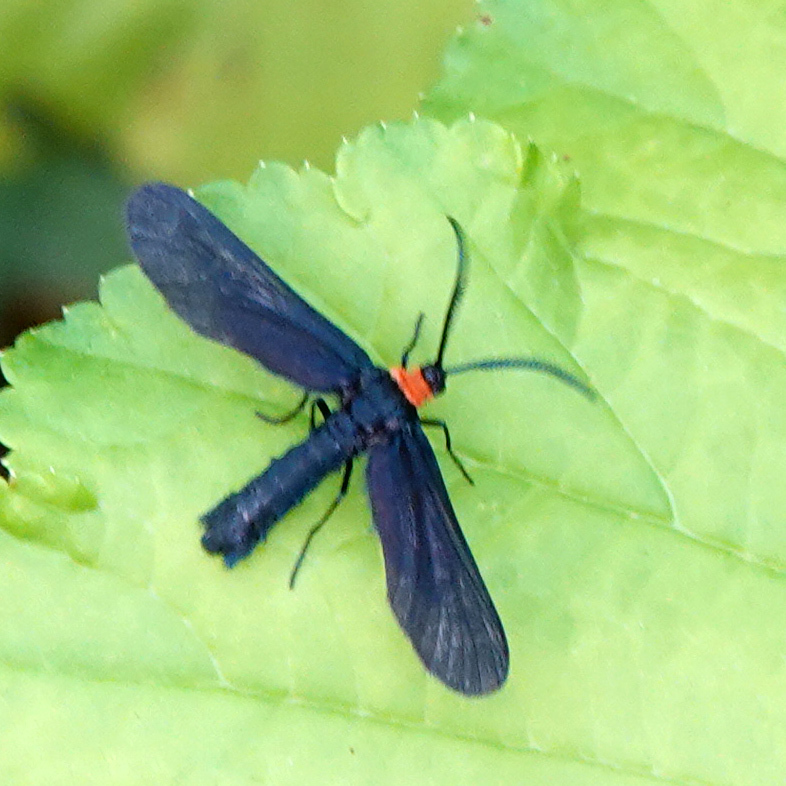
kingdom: Animalia
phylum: Arthropoda
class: Insecta
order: Lepidoptera
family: Zygaenidae
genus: Harrisina
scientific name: Harrisina americana
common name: Grapeleaf skeletonizer moth
